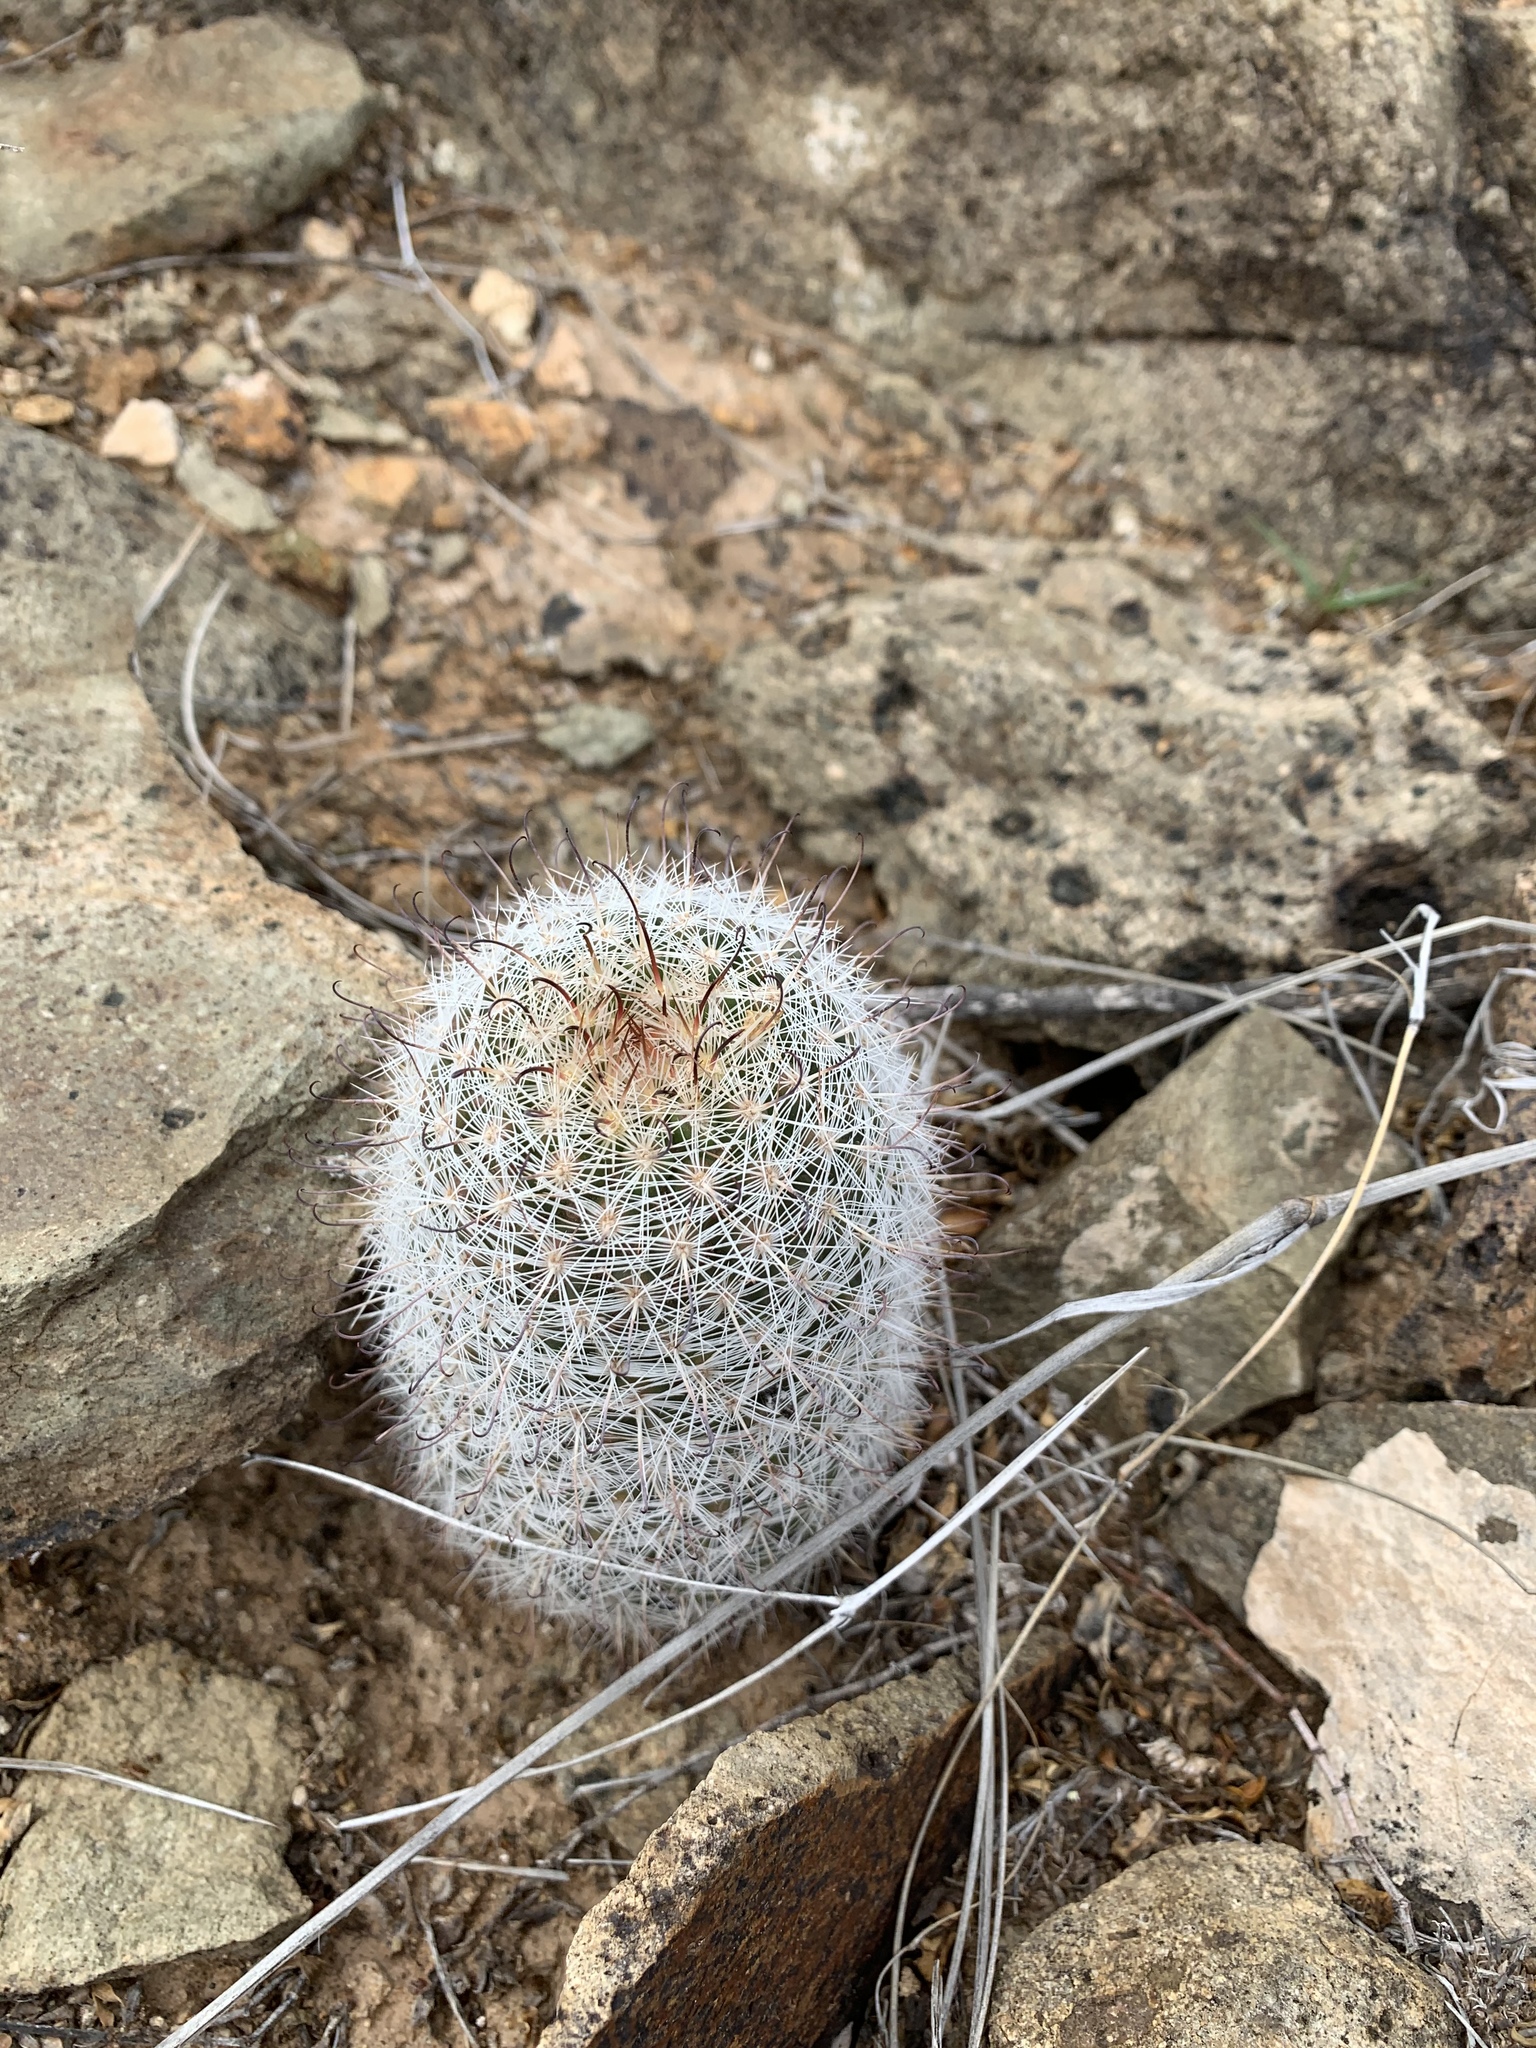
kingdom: Plantae
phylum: Tracheophyta
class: Magnoliopsida
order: Caryophyllales
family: Cactaceae
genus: Cochemiea
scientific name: Cochemiea grahamii
